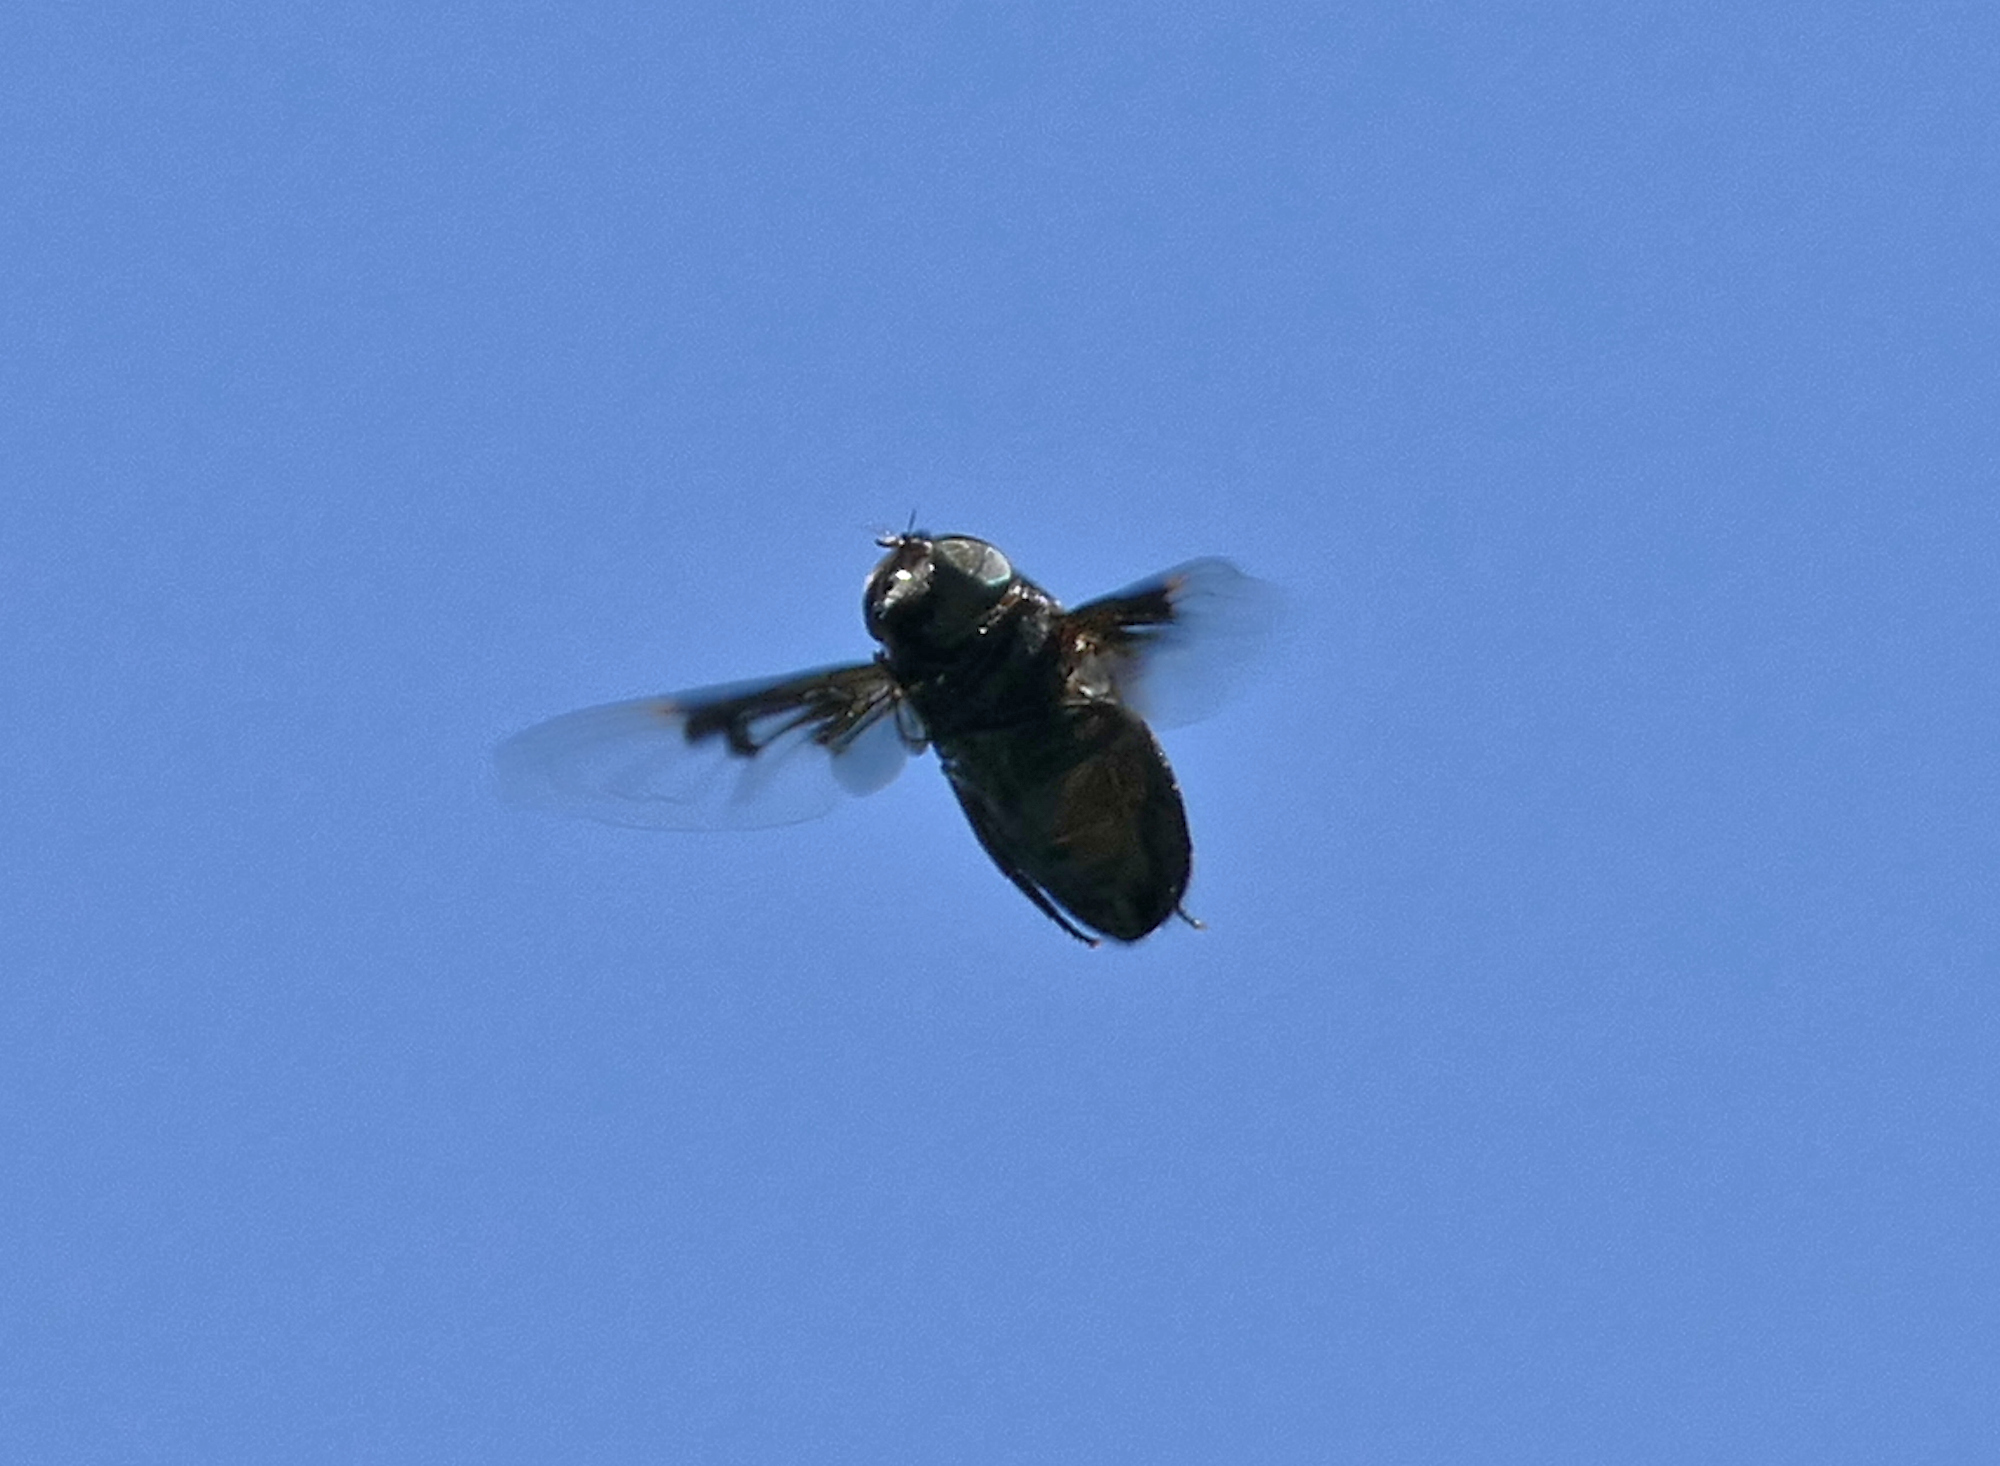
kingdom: Animalia
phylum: Arthropoda
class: Insecta
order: Diptera
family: Syrphidae
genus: Copestylum
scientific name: Copestylum
